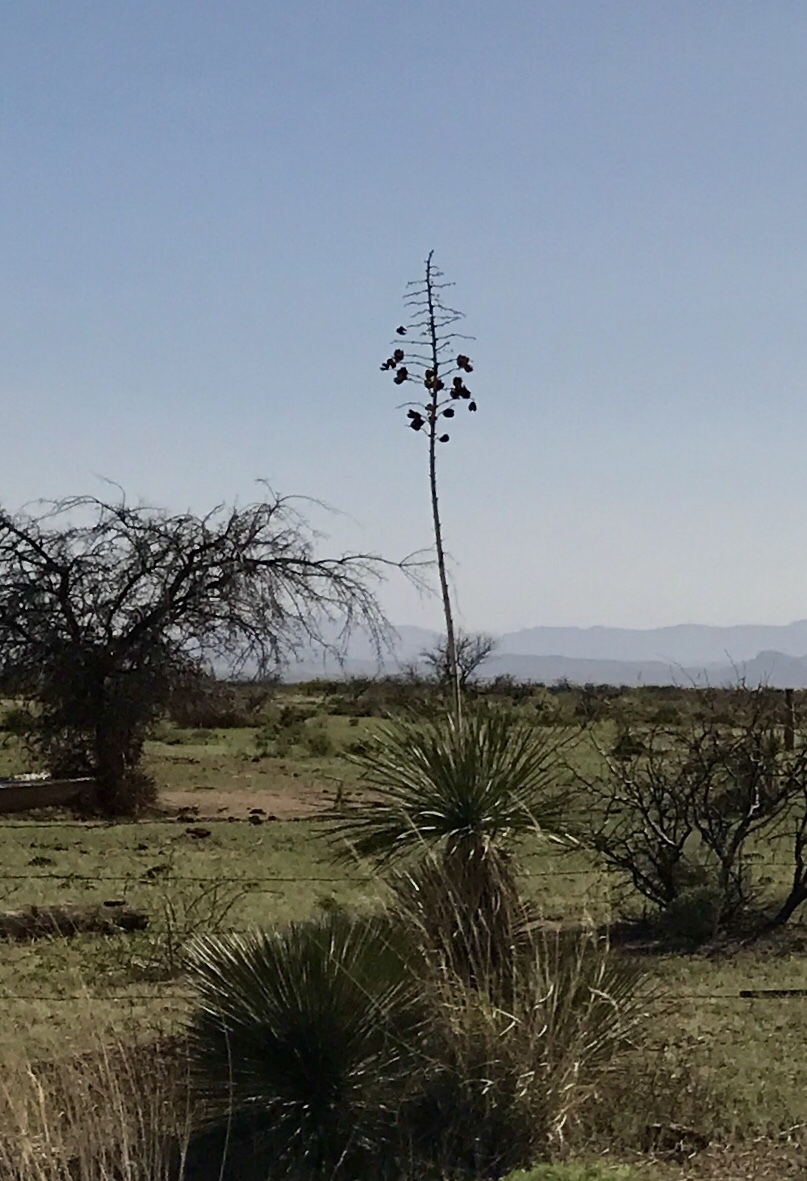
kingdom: Plantae
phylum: Tracheophyta
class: Liliopsida
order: Asparagales
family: Asparagaceae
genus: Yucca
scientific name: Yucca elata
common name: Palmella
